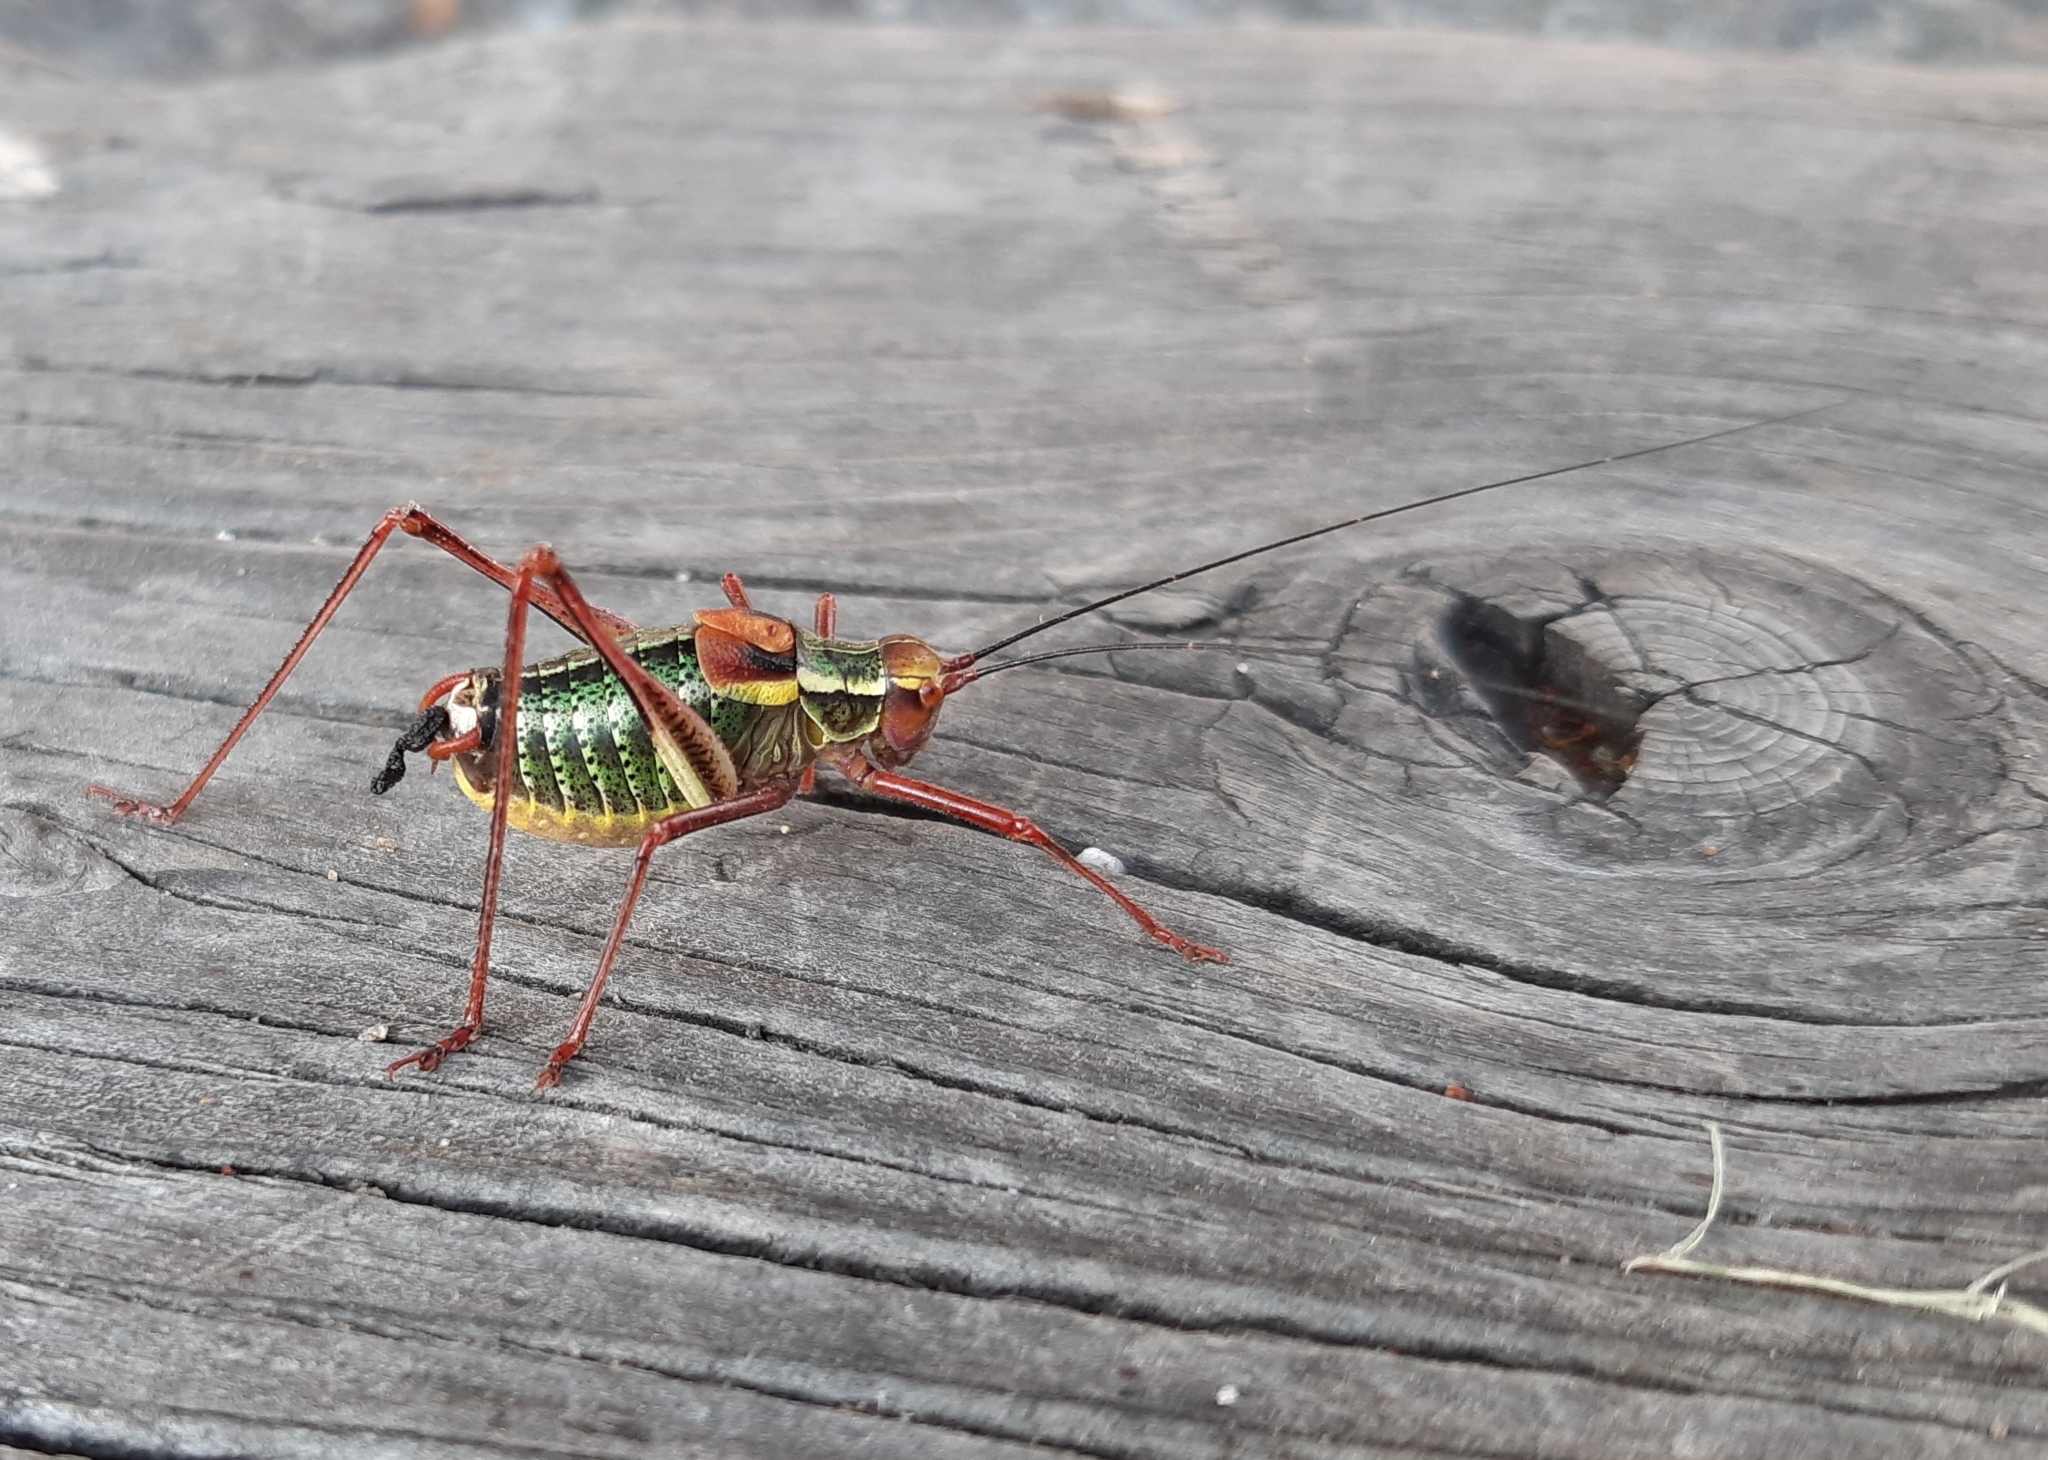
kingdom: Animalia
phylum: Arthropoda
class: Insecta
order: Orthoptera
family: Tettigoniidae
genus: Barbitistes
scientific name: Barbitistes serricauda
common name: Saw-tailed bush-cricket
